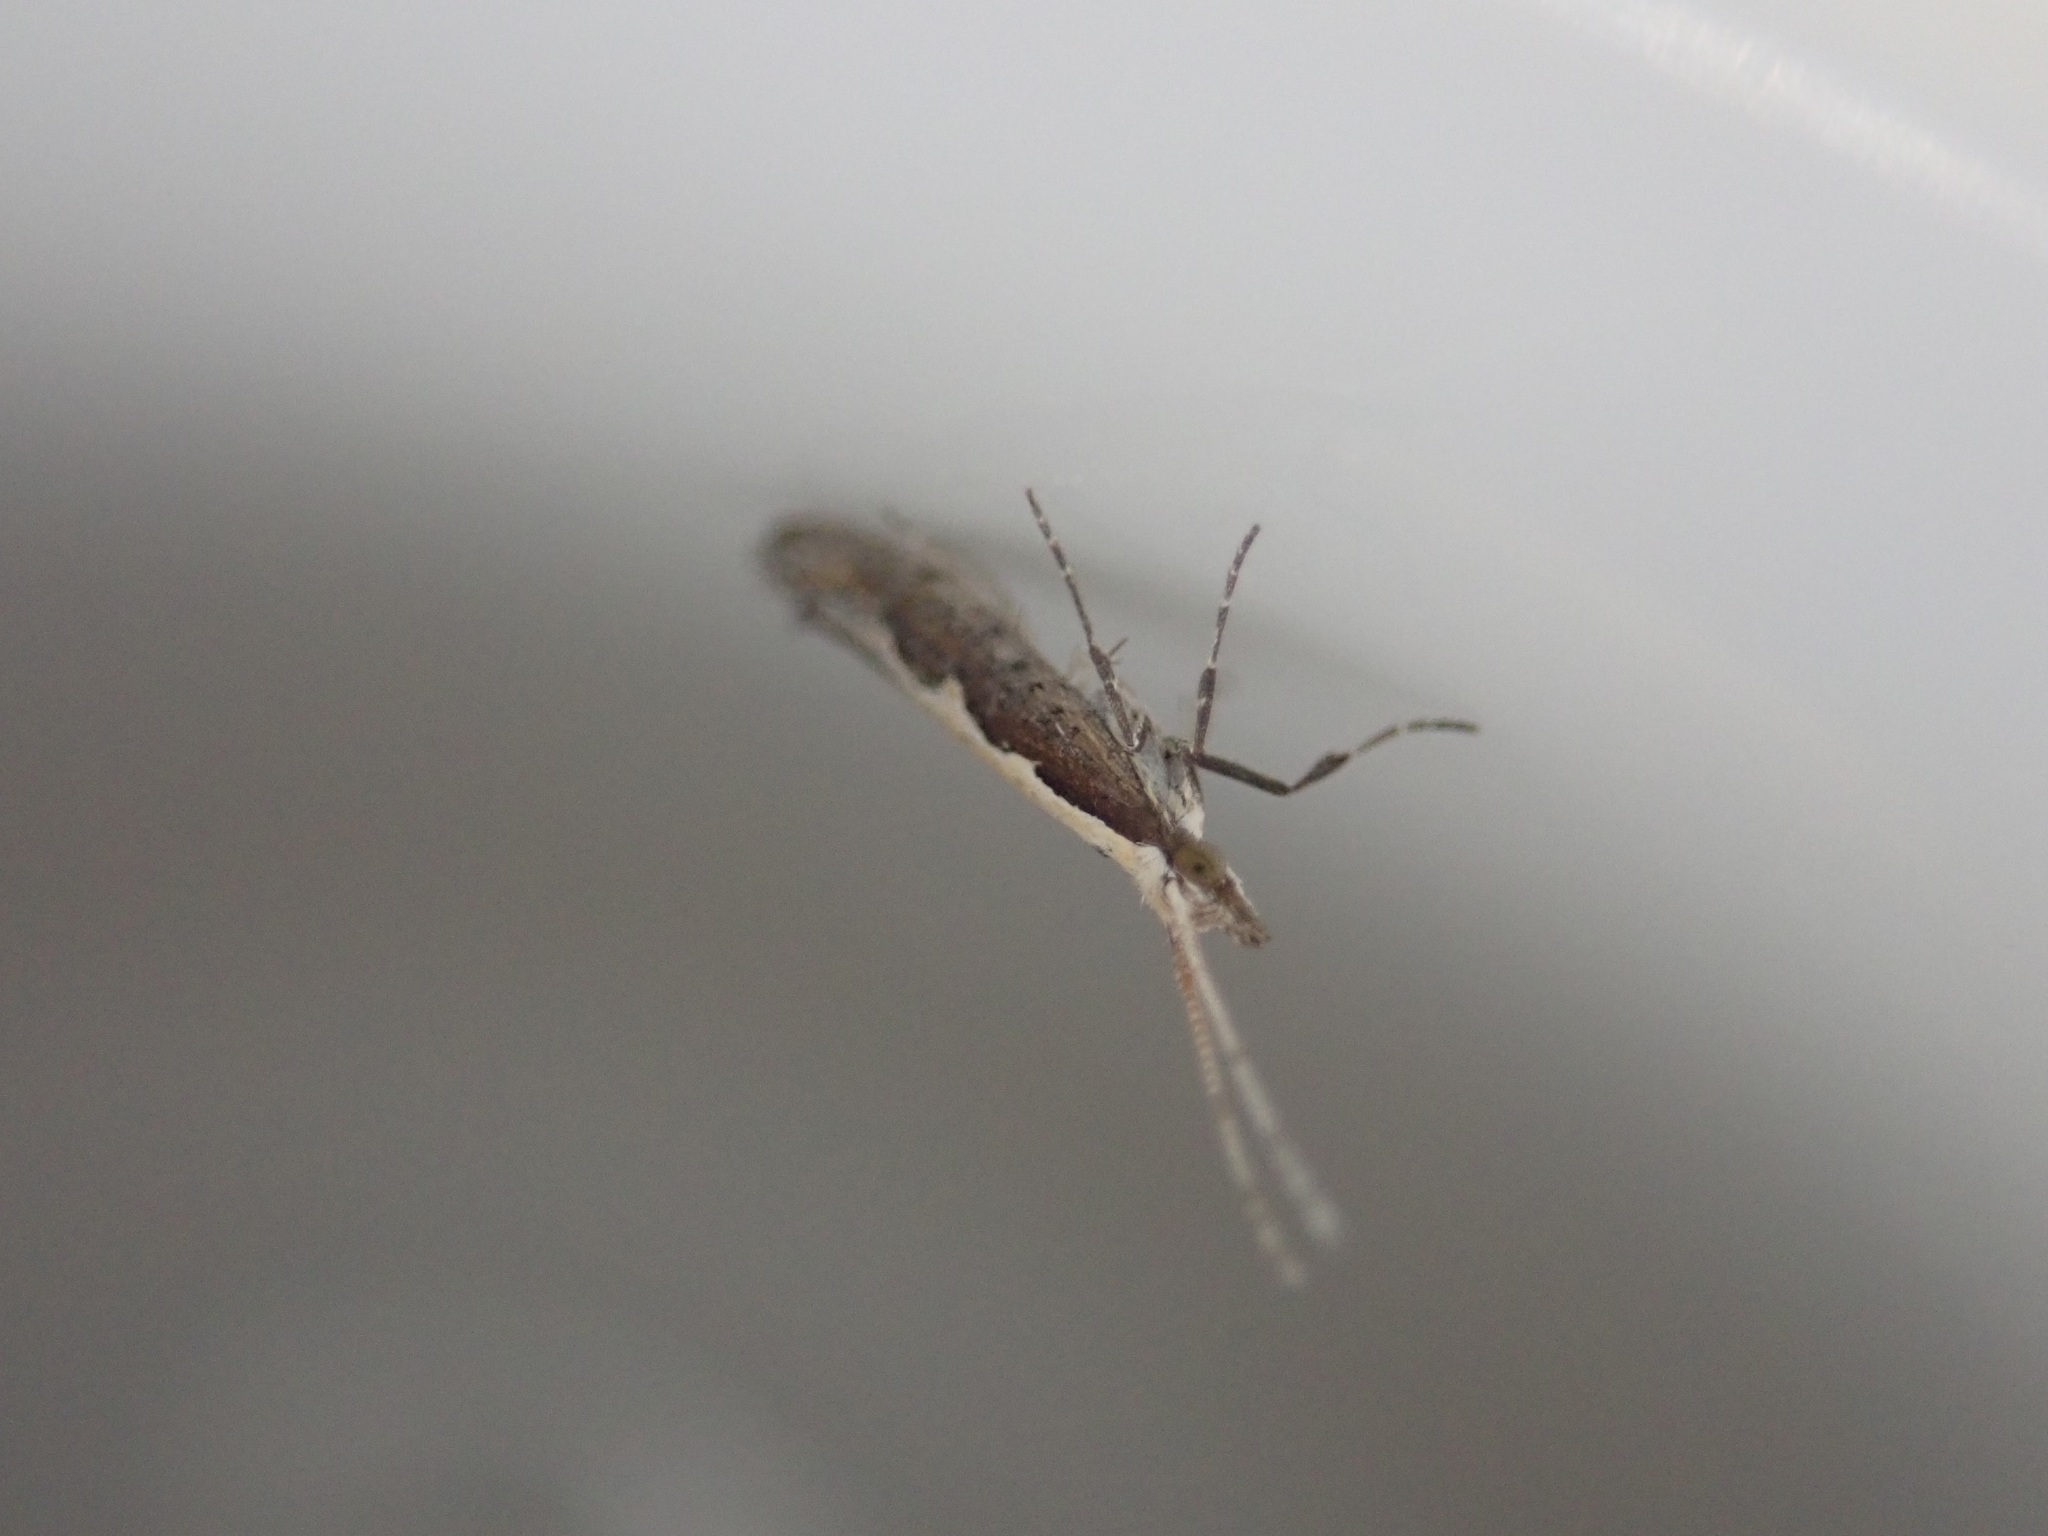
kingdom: Animalia
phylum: Arthropoda
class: Insecta
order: Lepidoptera
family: Plutellidae
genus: Plutella
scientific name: Plutella xylostella
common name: Diamond-back moth
